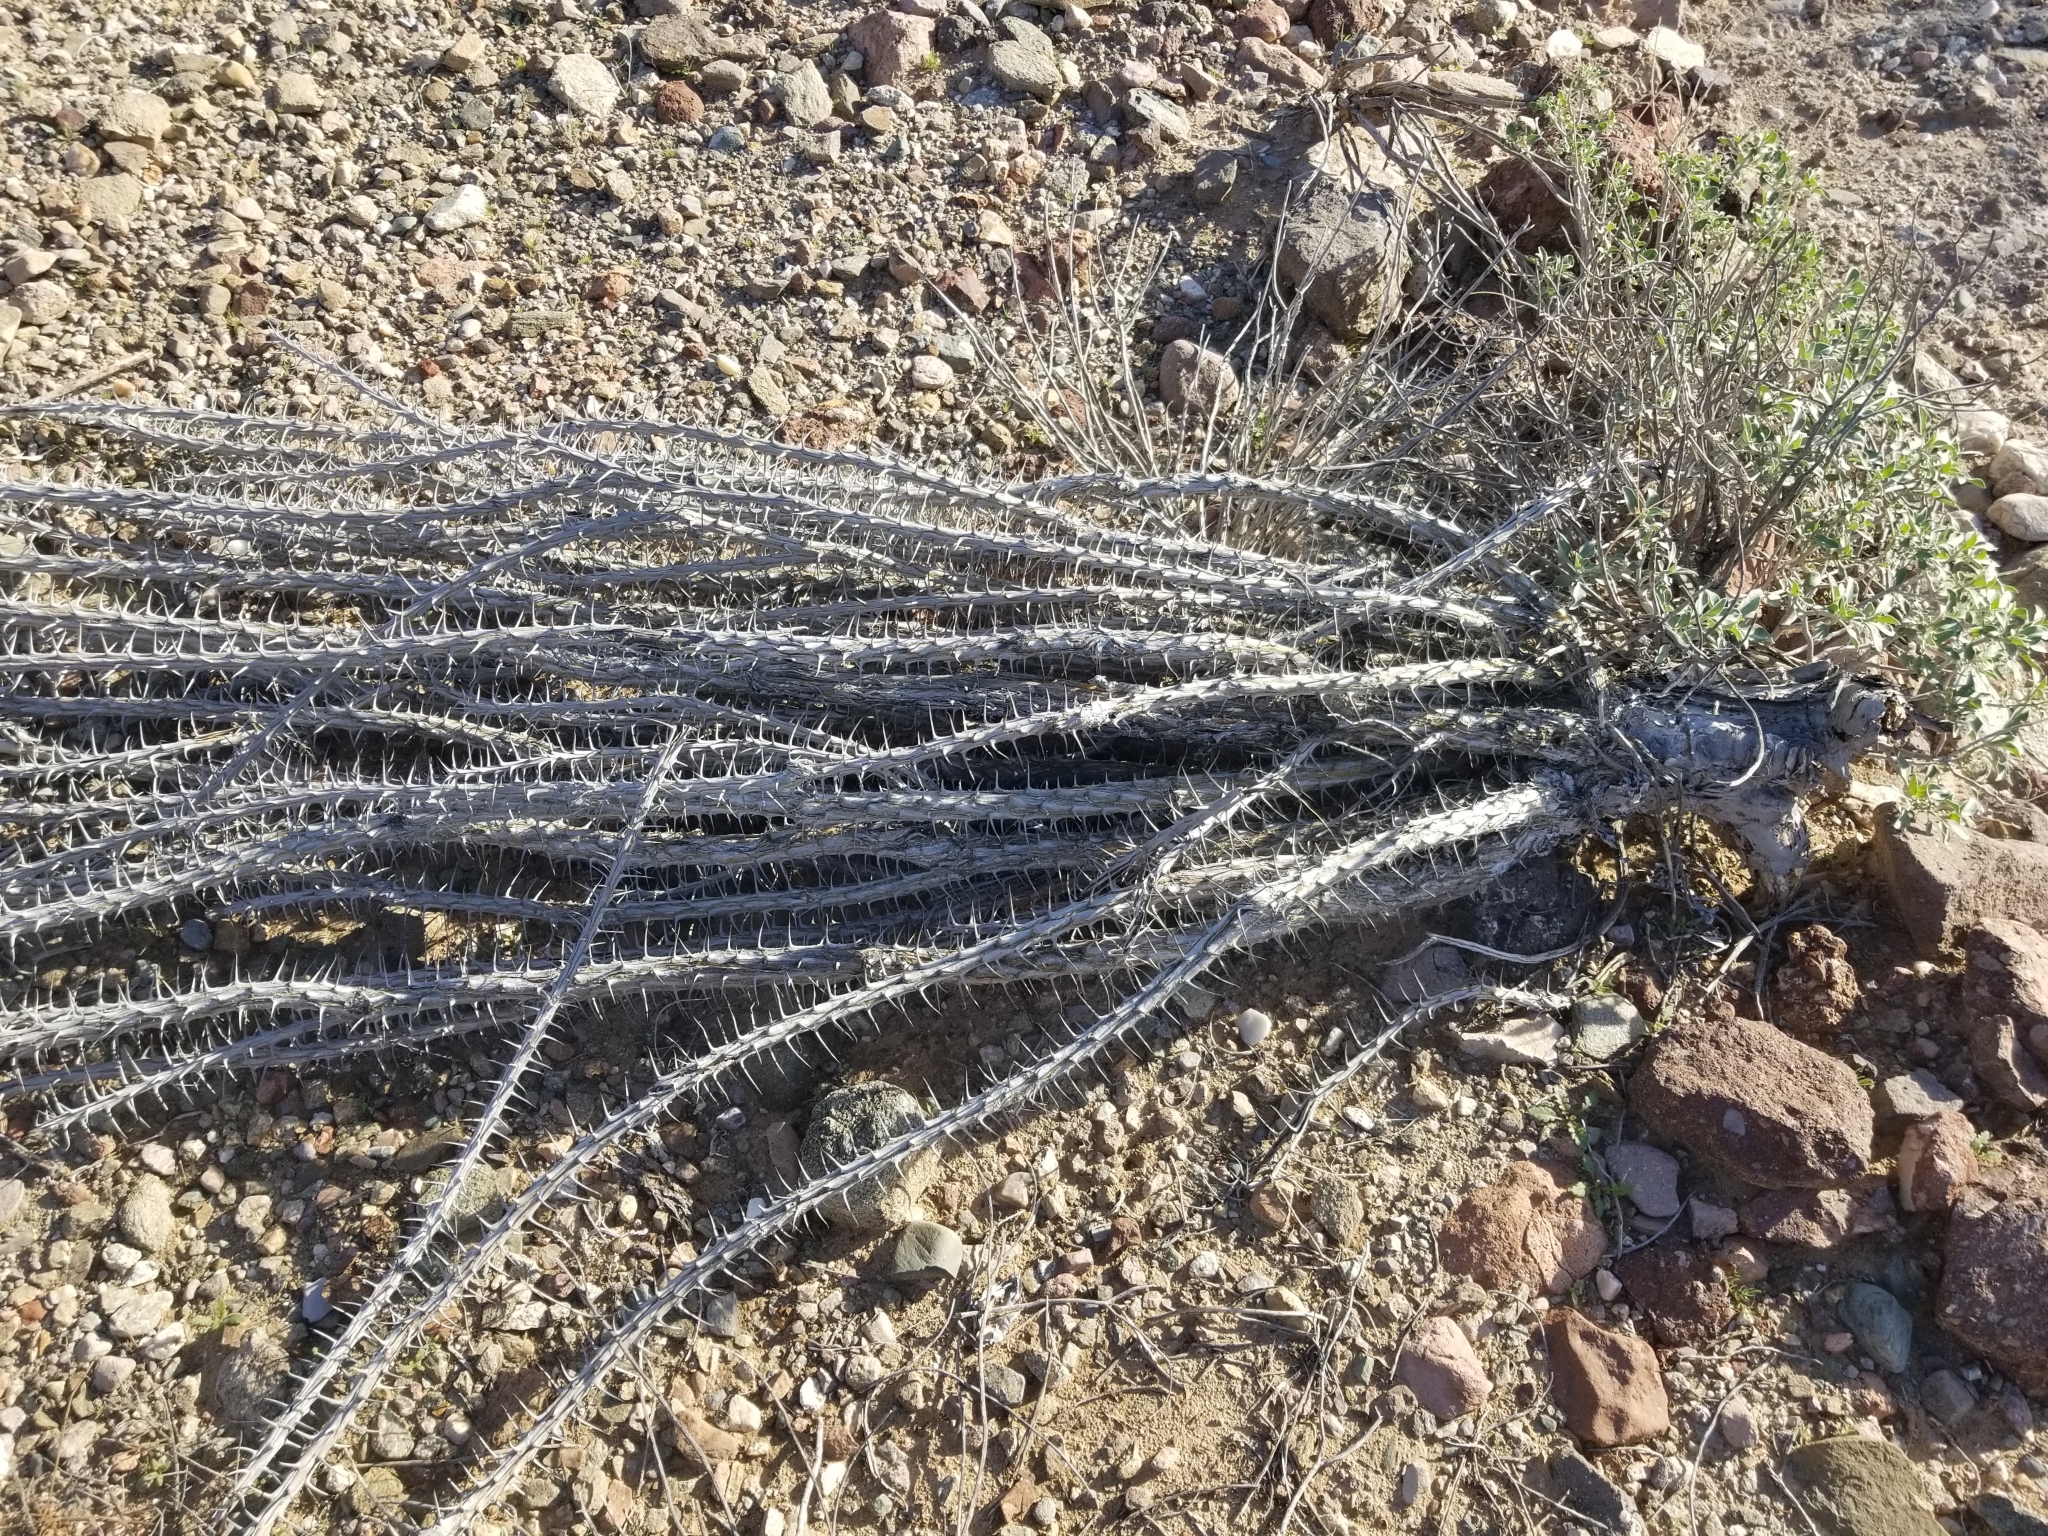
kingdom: Plantae
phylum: Tracheophyta
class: Magnoliopsida
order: Ericales
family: Fouquieriaceae
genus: Fouquieria
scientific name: Fouquieria splendens
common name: Vine-cactus
